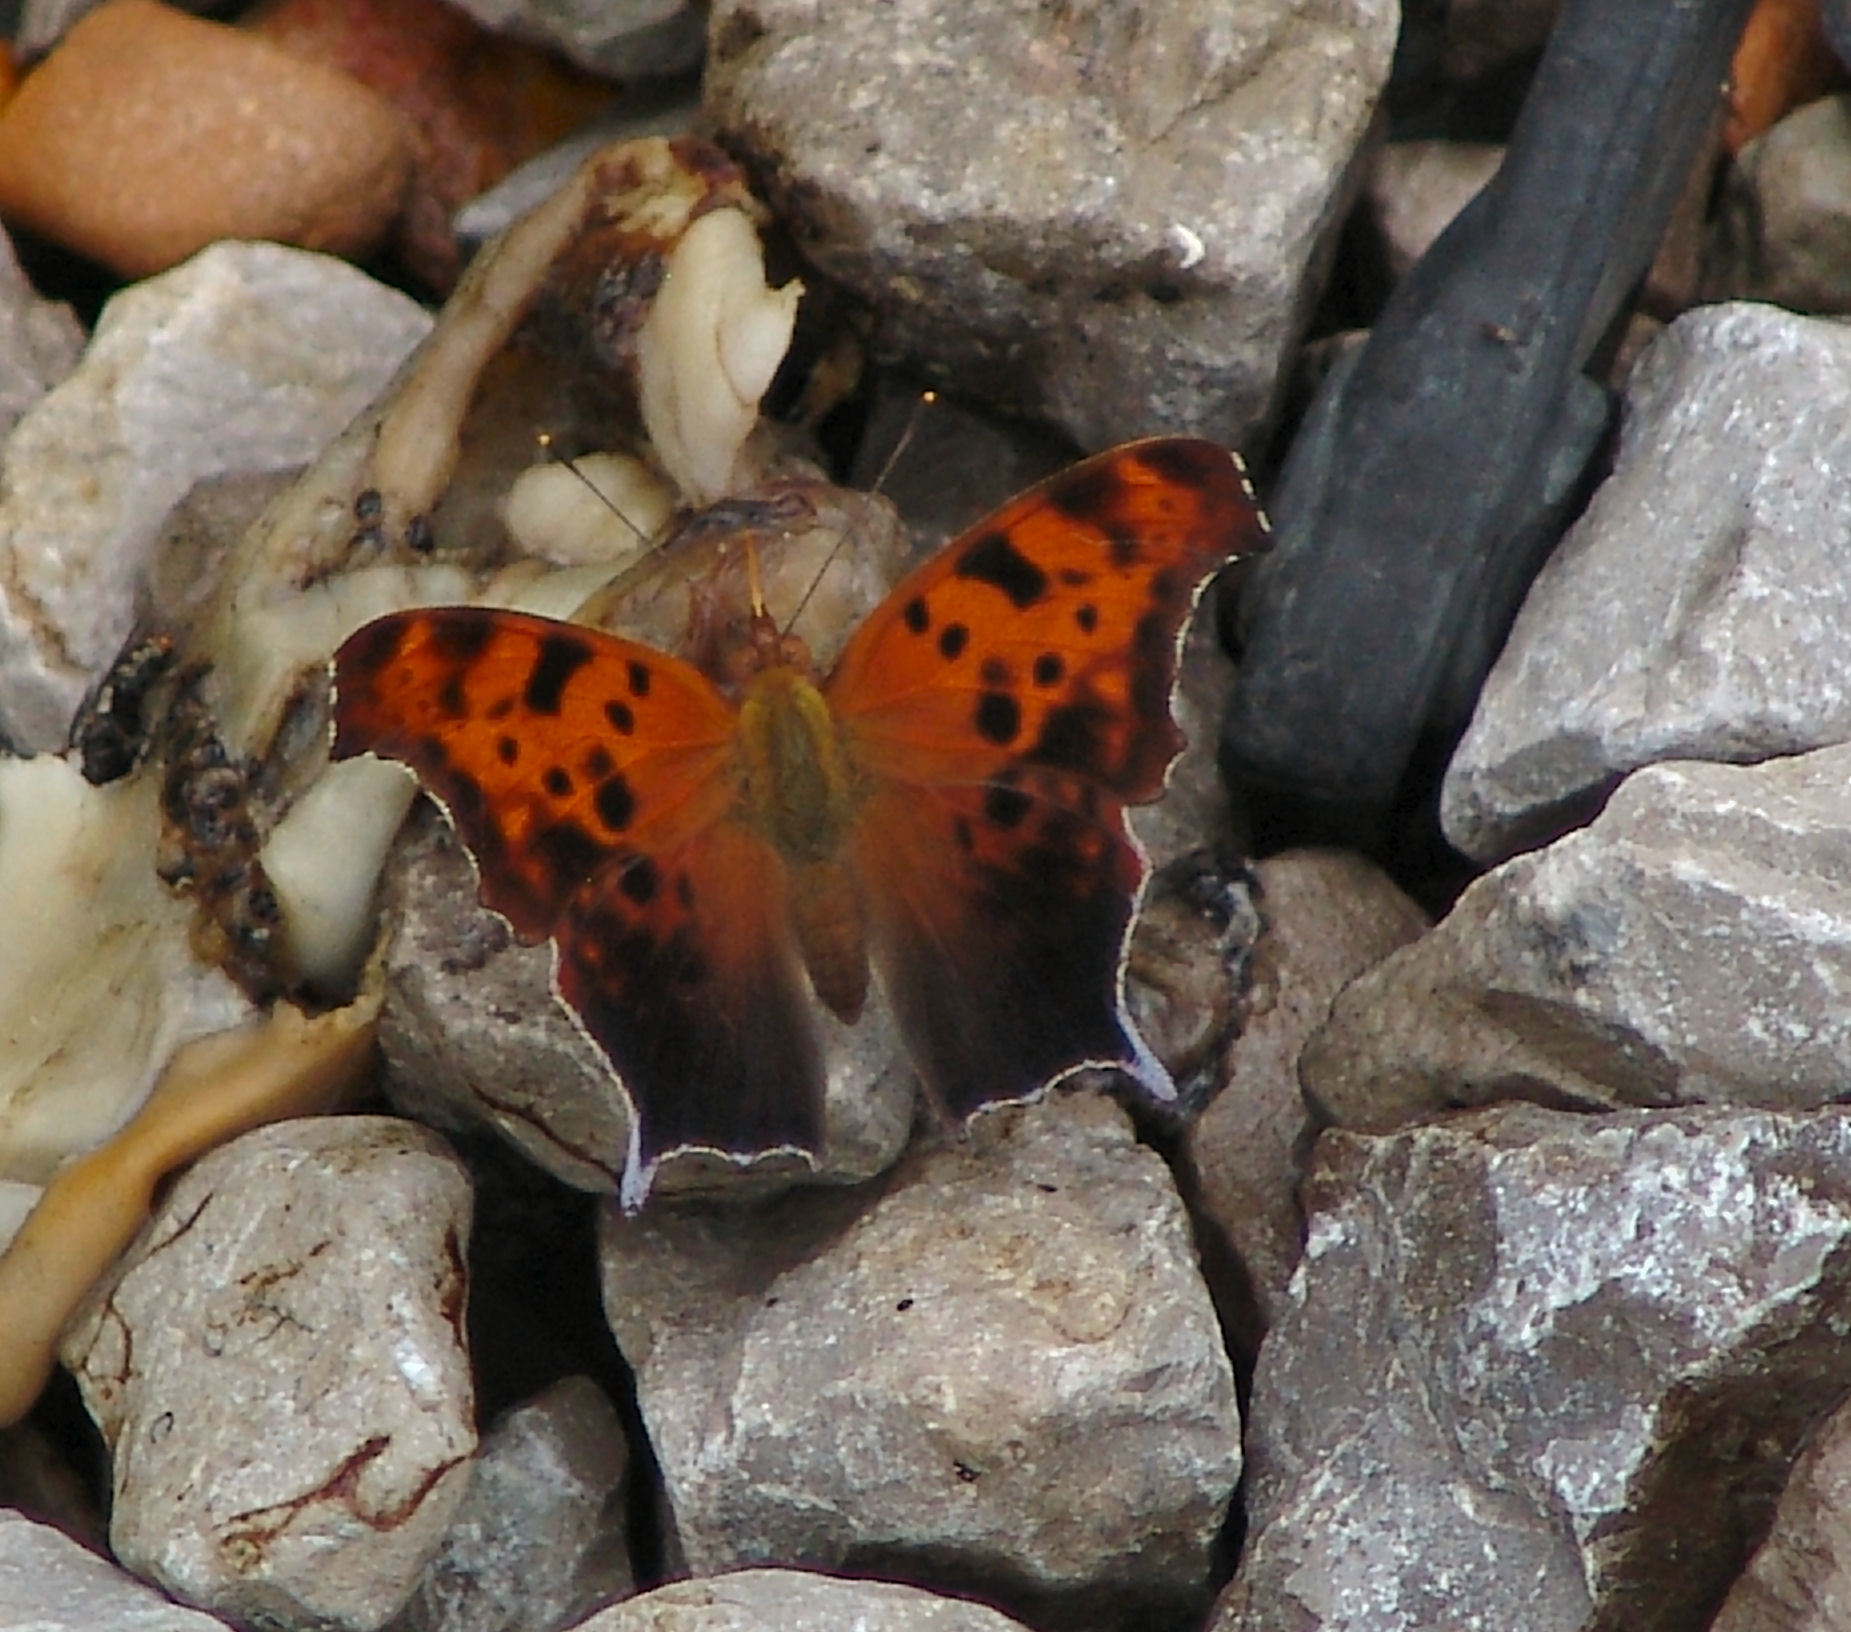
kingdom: Animalia
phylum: Arthropoda
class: Insecta
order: Lepidoptera
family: Nymphalidae
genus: Polygonia
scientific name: Polygonia interrogationis
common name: Question mark
